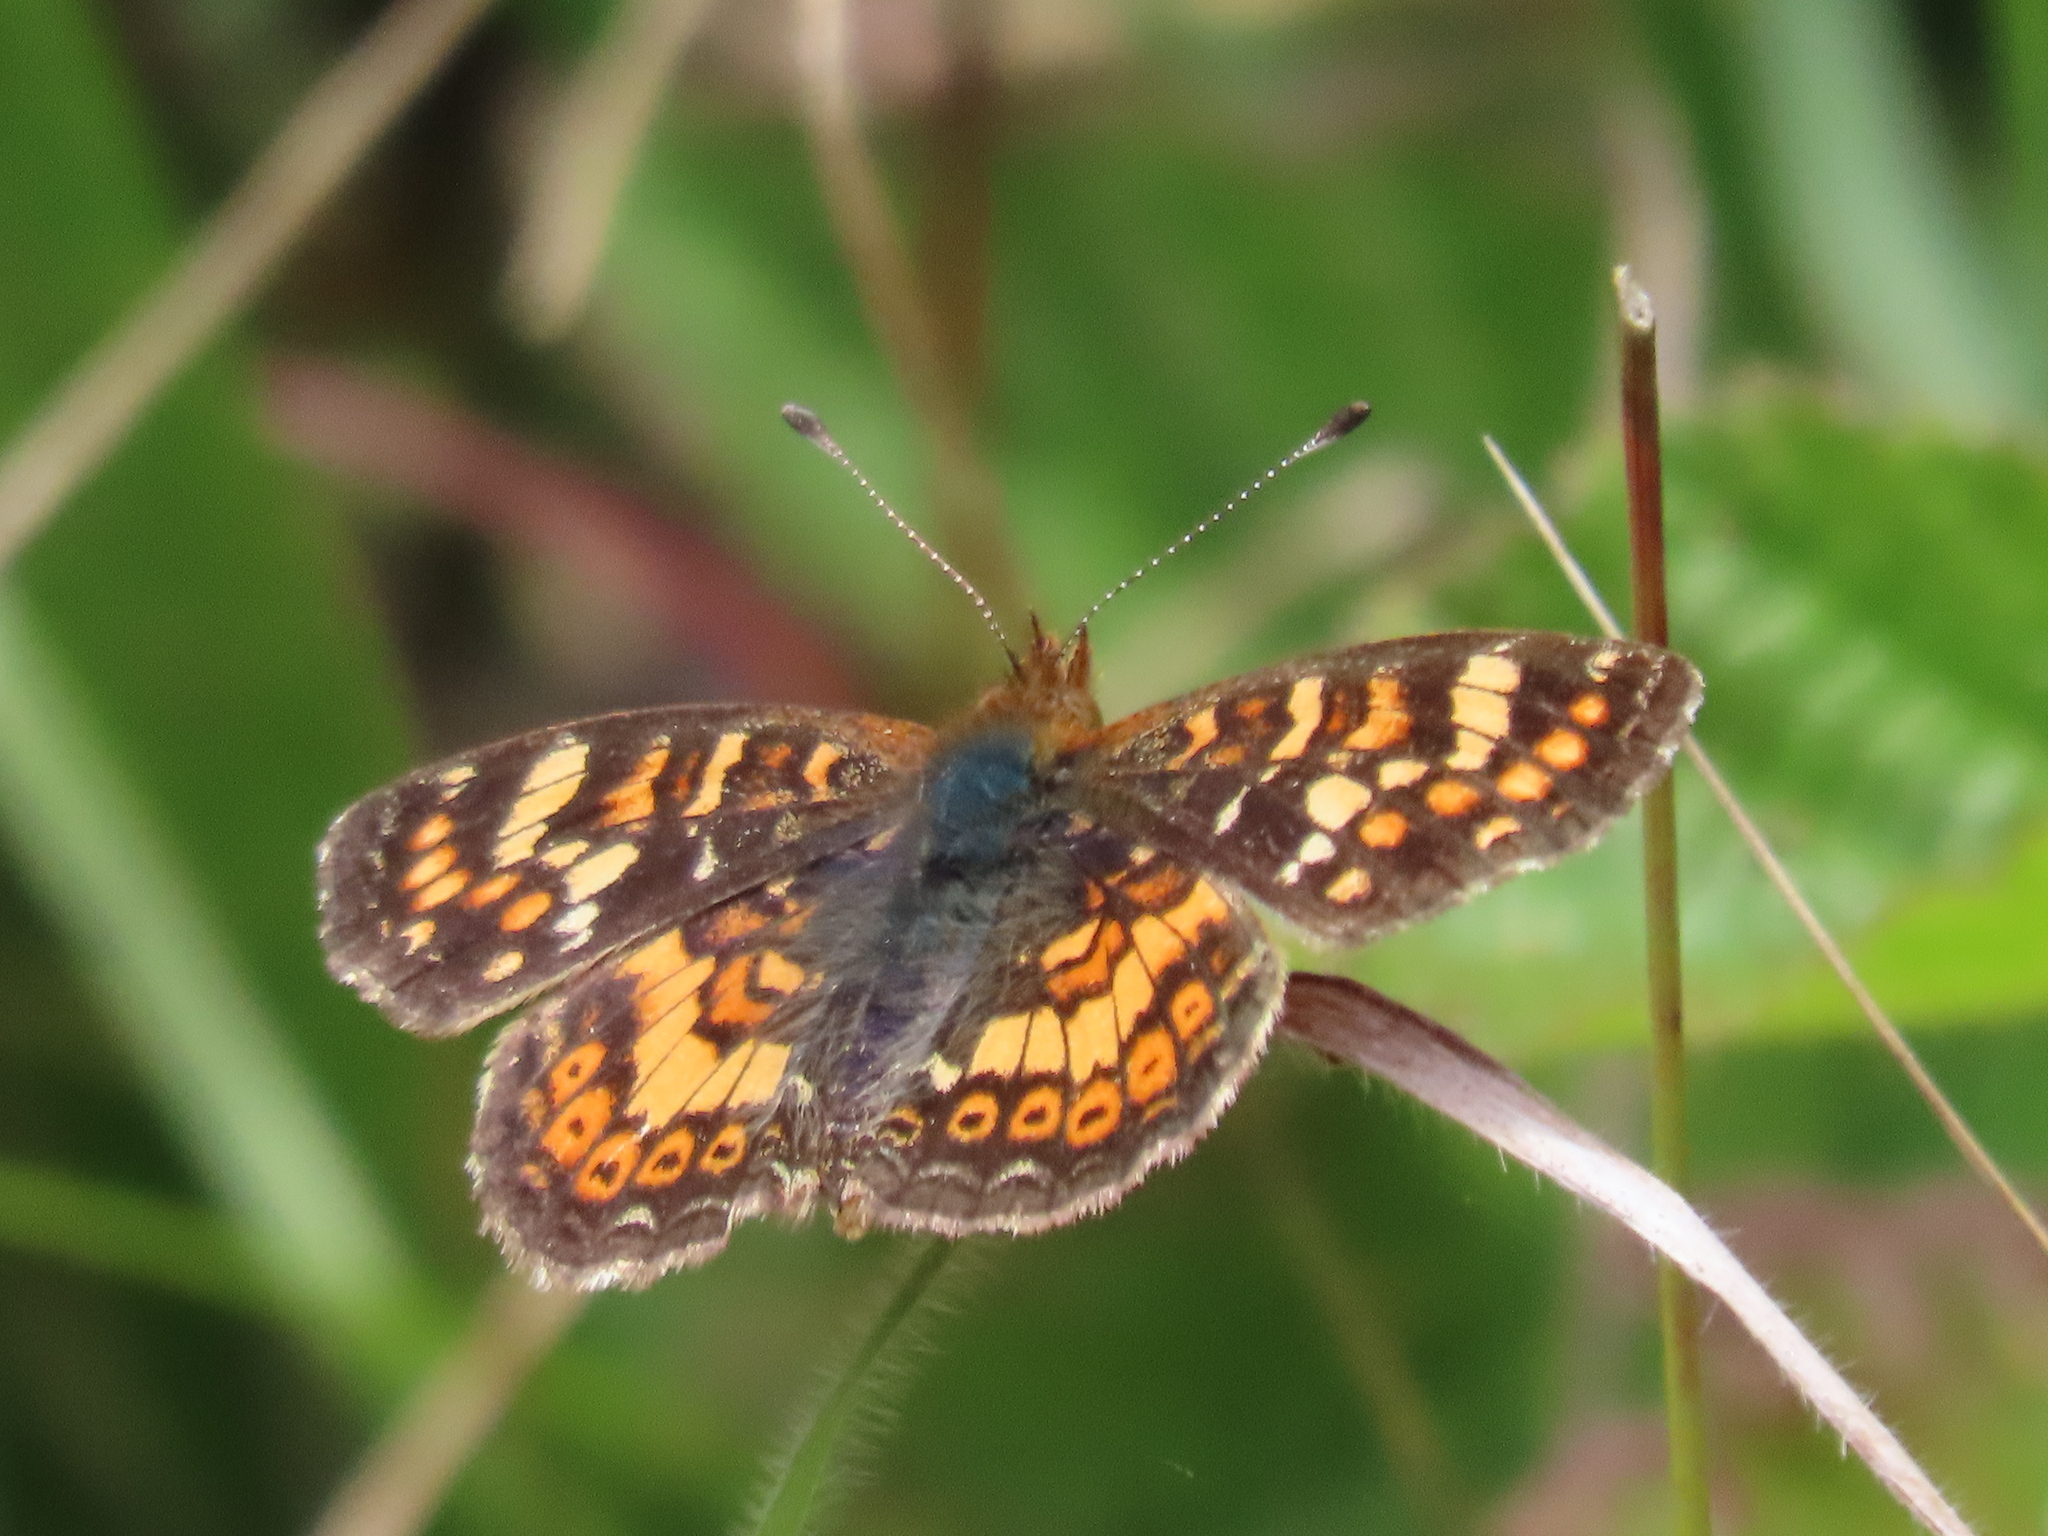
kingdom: Animalia
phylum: Arthropoda
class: Insecta
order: Lepidoptera
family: Nymphalidae
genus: Phyciodes
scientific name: Phyciodes tharos
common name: Pearl crescent
